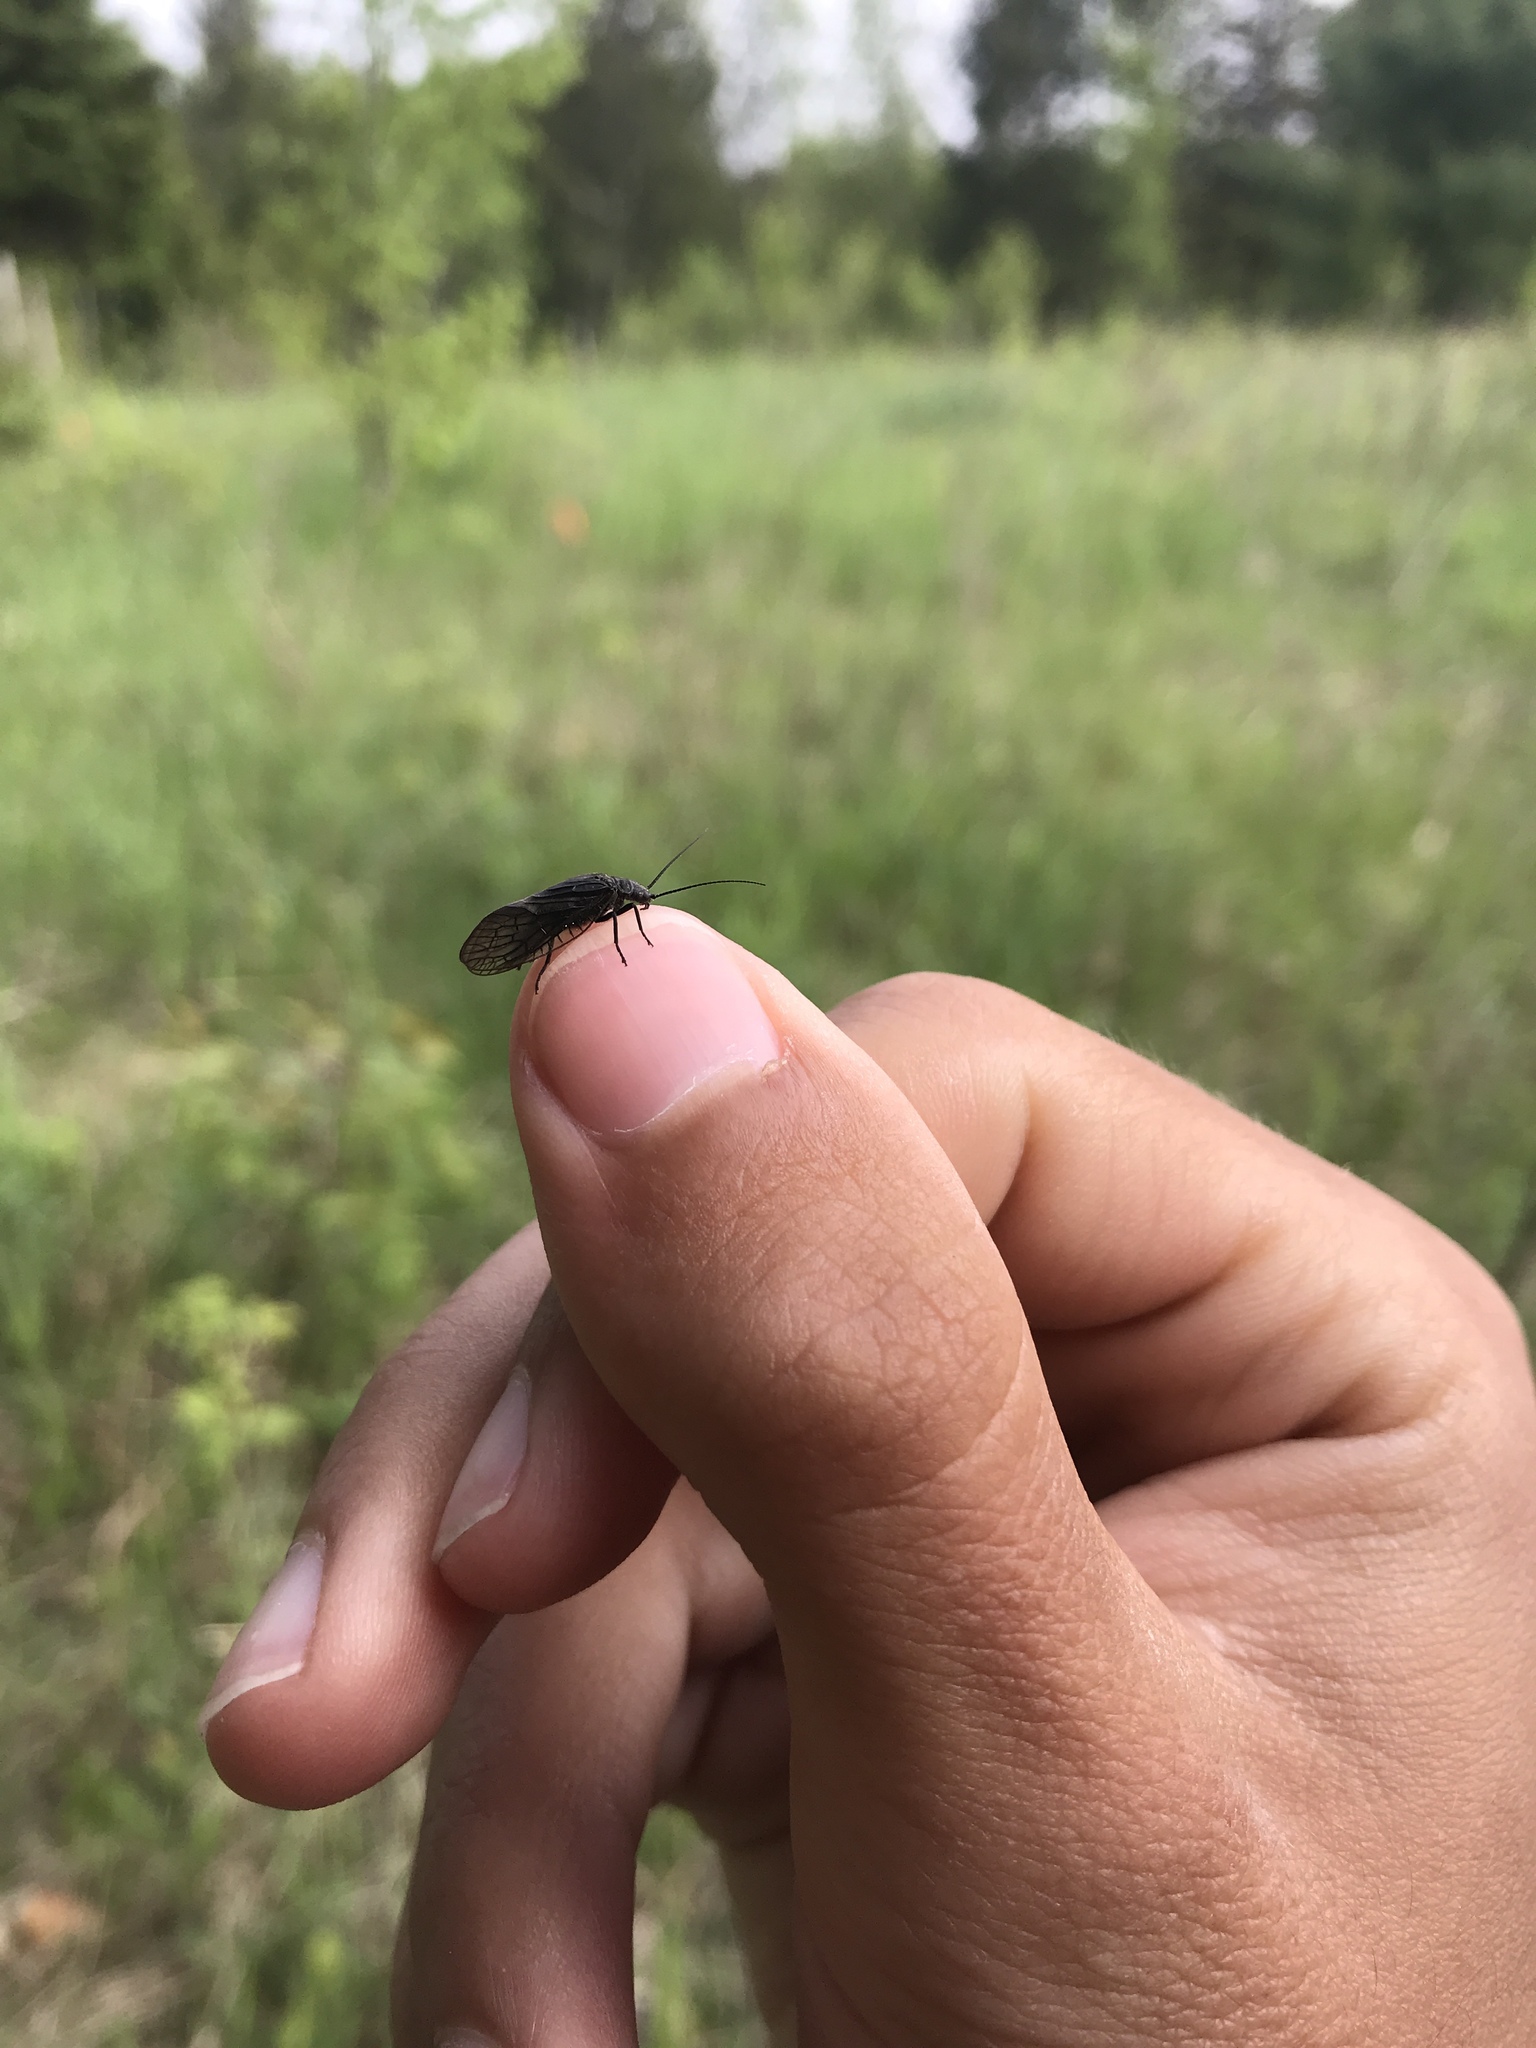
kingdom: Animalia
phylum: Arthropoda
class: Insecta
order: Megaloptera
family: Sialidae
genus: Sialis
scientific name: Sialis
